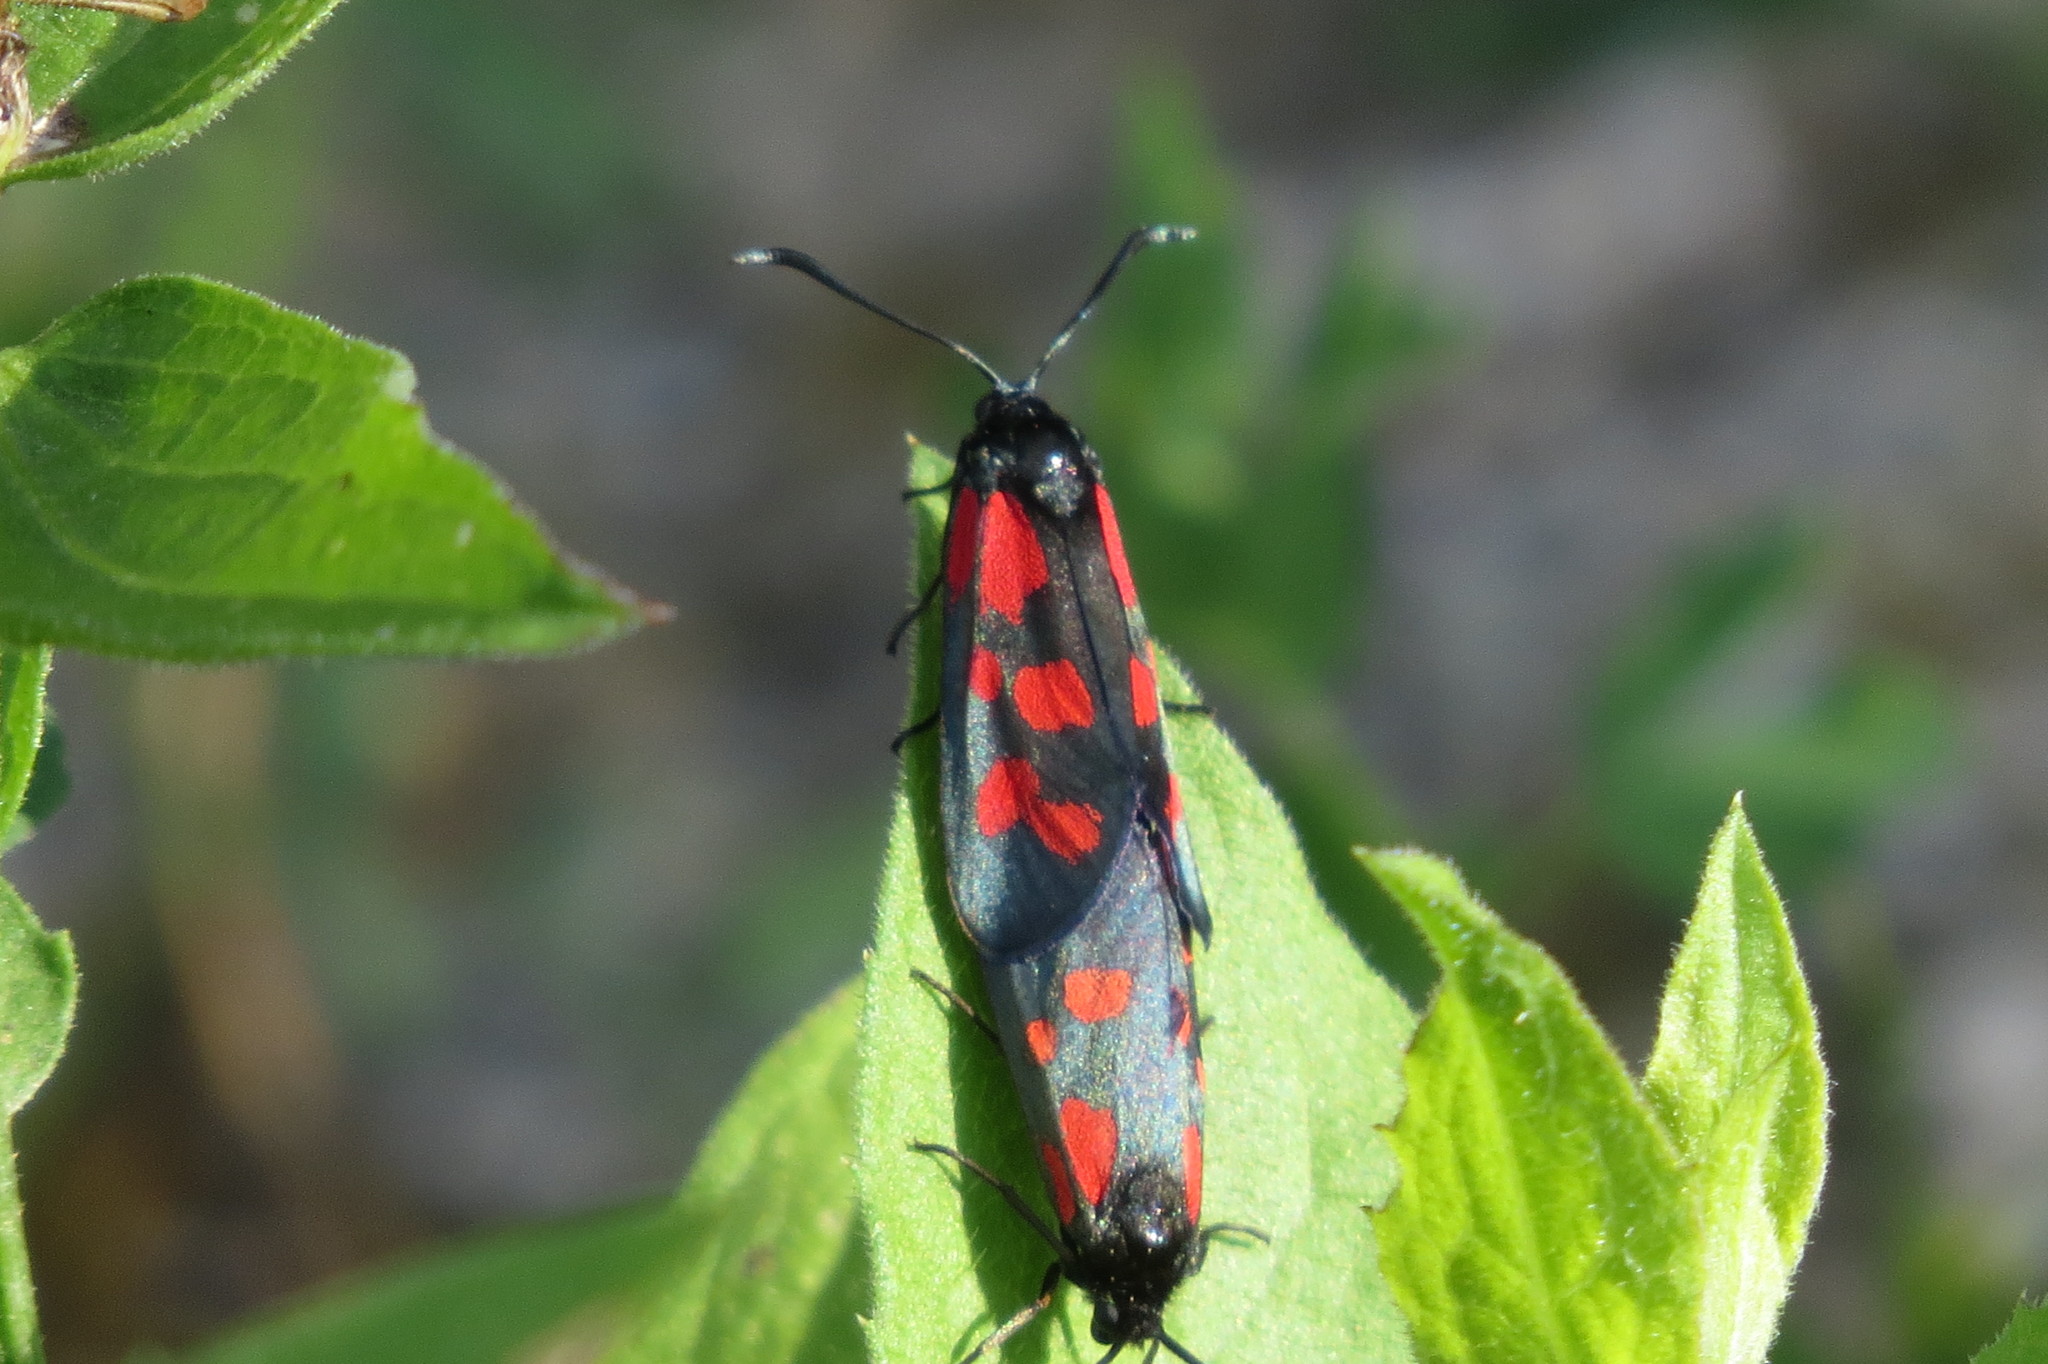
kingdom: Animalia
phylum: Arthropoda
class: Insecta
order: Lepidoptera
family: Zygaenidae
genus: Zygaena
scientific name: Zygaena filipendulae
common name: Six-spot burnet
